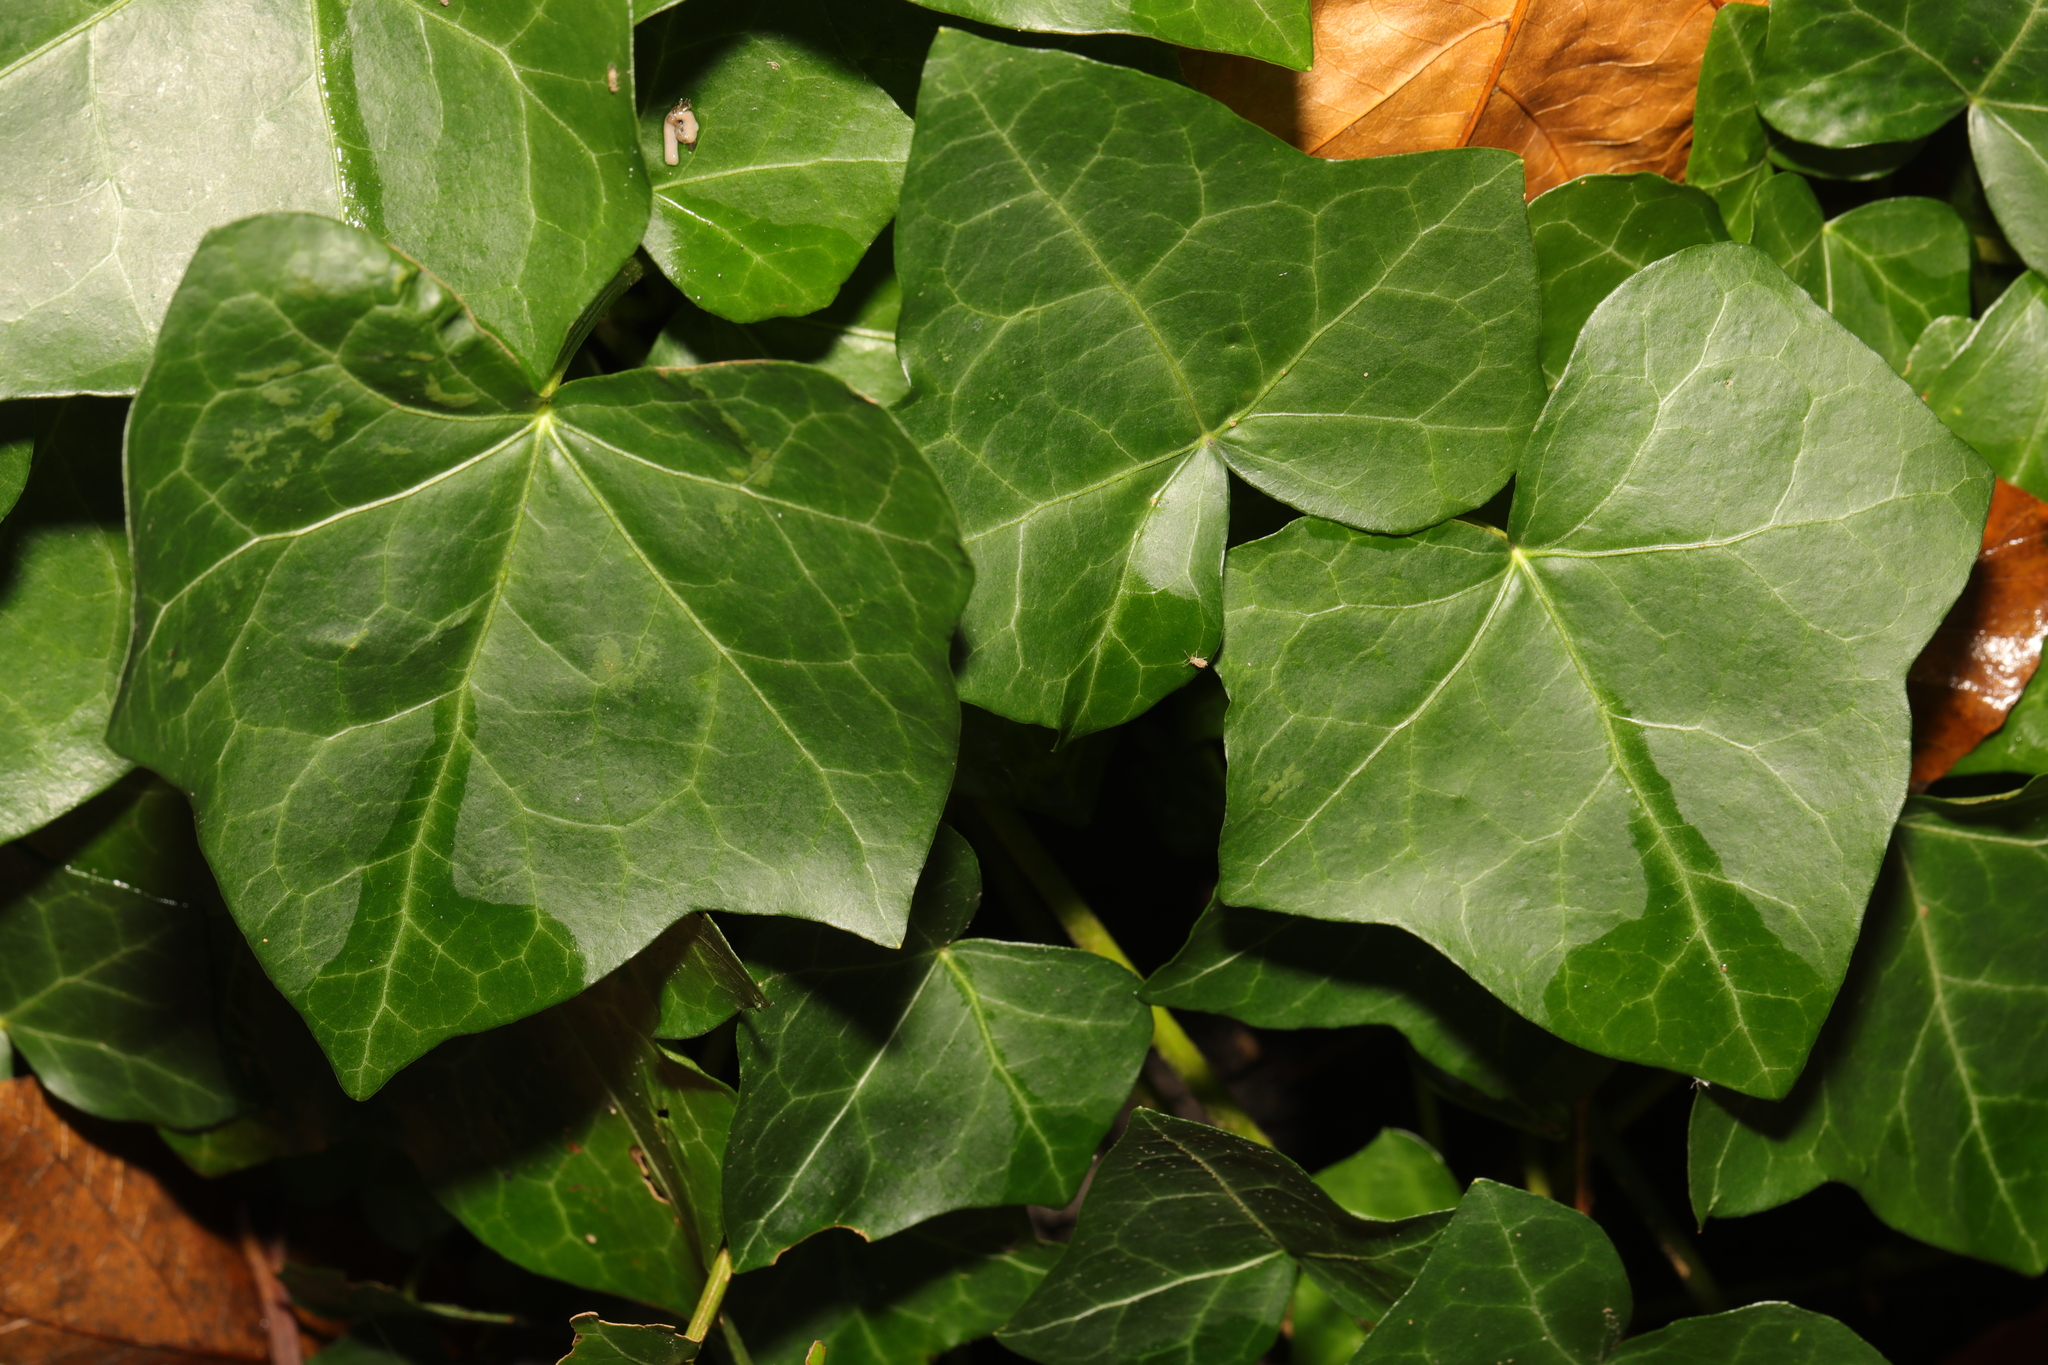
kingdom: Plantae
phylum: Tracheophyta
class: Magnoliopsida
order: Apiales
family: Araliaceae
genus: Hedera
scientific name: Hedera helix
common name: Ivy
